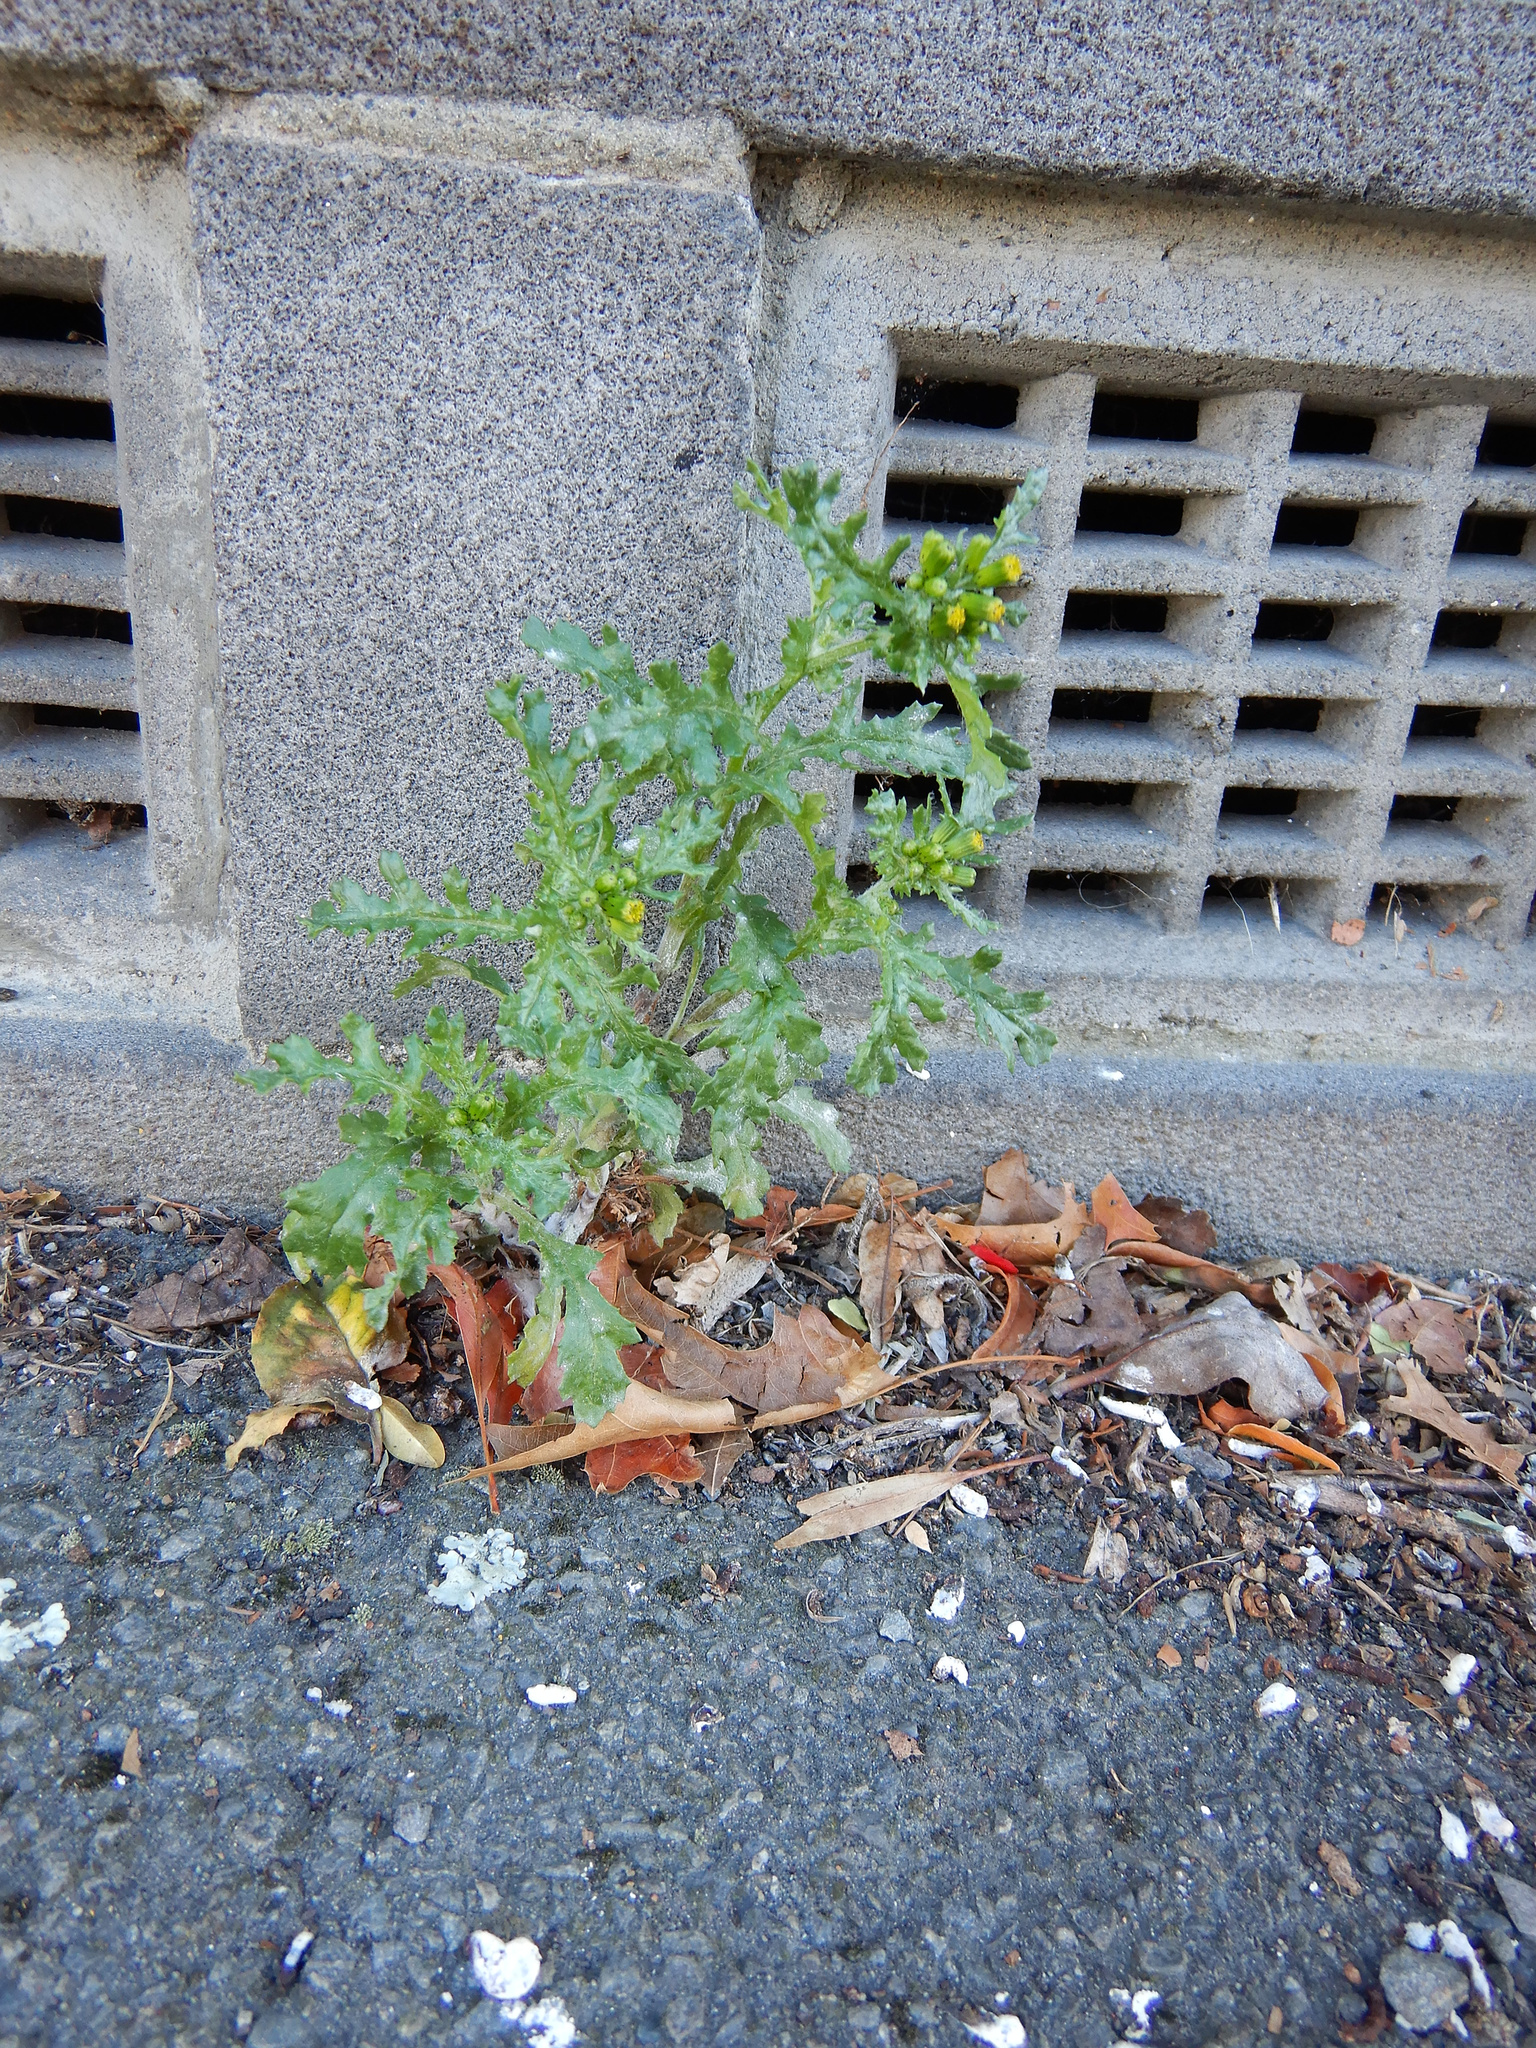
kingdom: Plantae
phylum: Tracheophyta
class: Magnoliopsida
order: Asterales
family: Asteraceae
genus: Senecio
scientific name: Senecio vulgaris
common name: Old-man-in-the-spring
